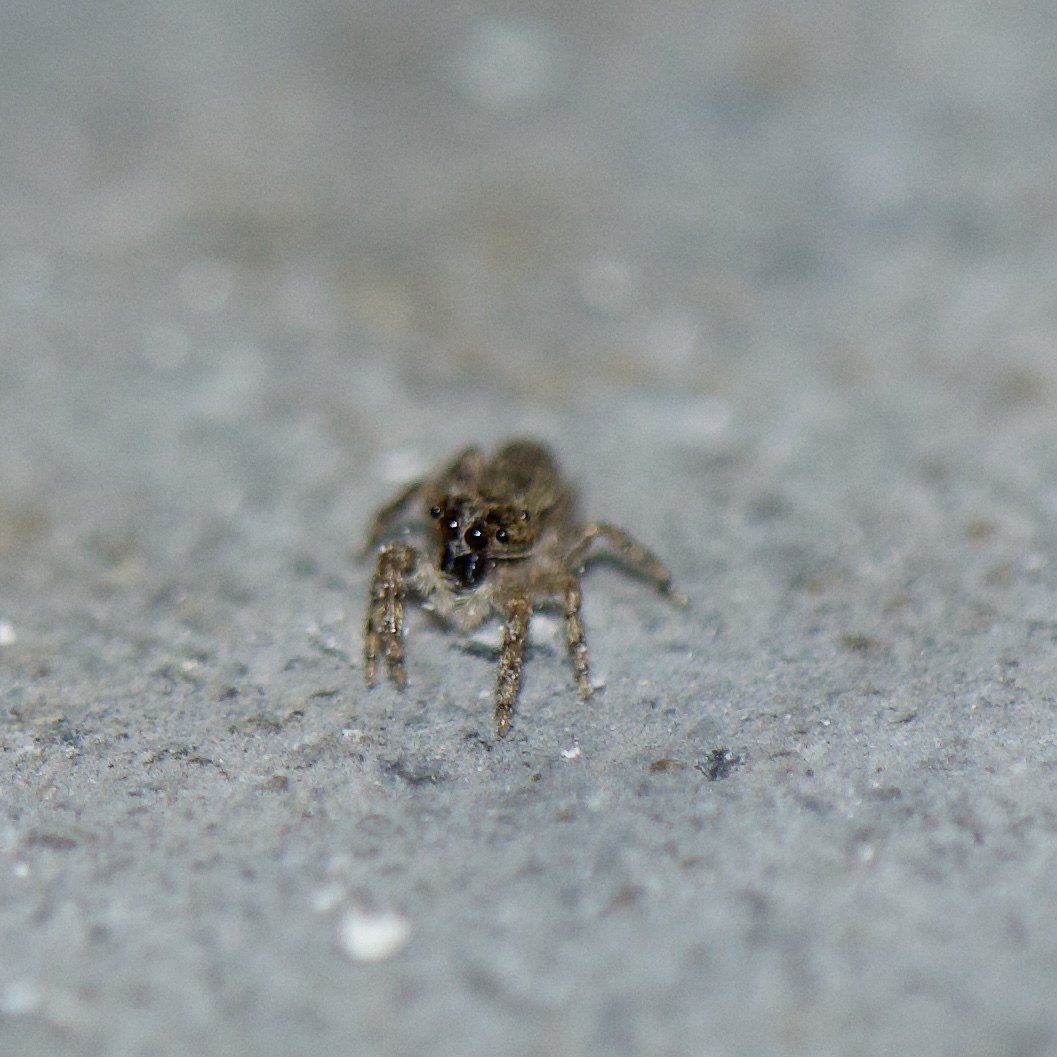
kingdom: Animalia
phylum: Arthropoda
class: Arachnida
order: Araneae
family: Salticidae
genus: Platycryptus
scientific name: Platycryptus undatus
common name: Tan jumping spider
